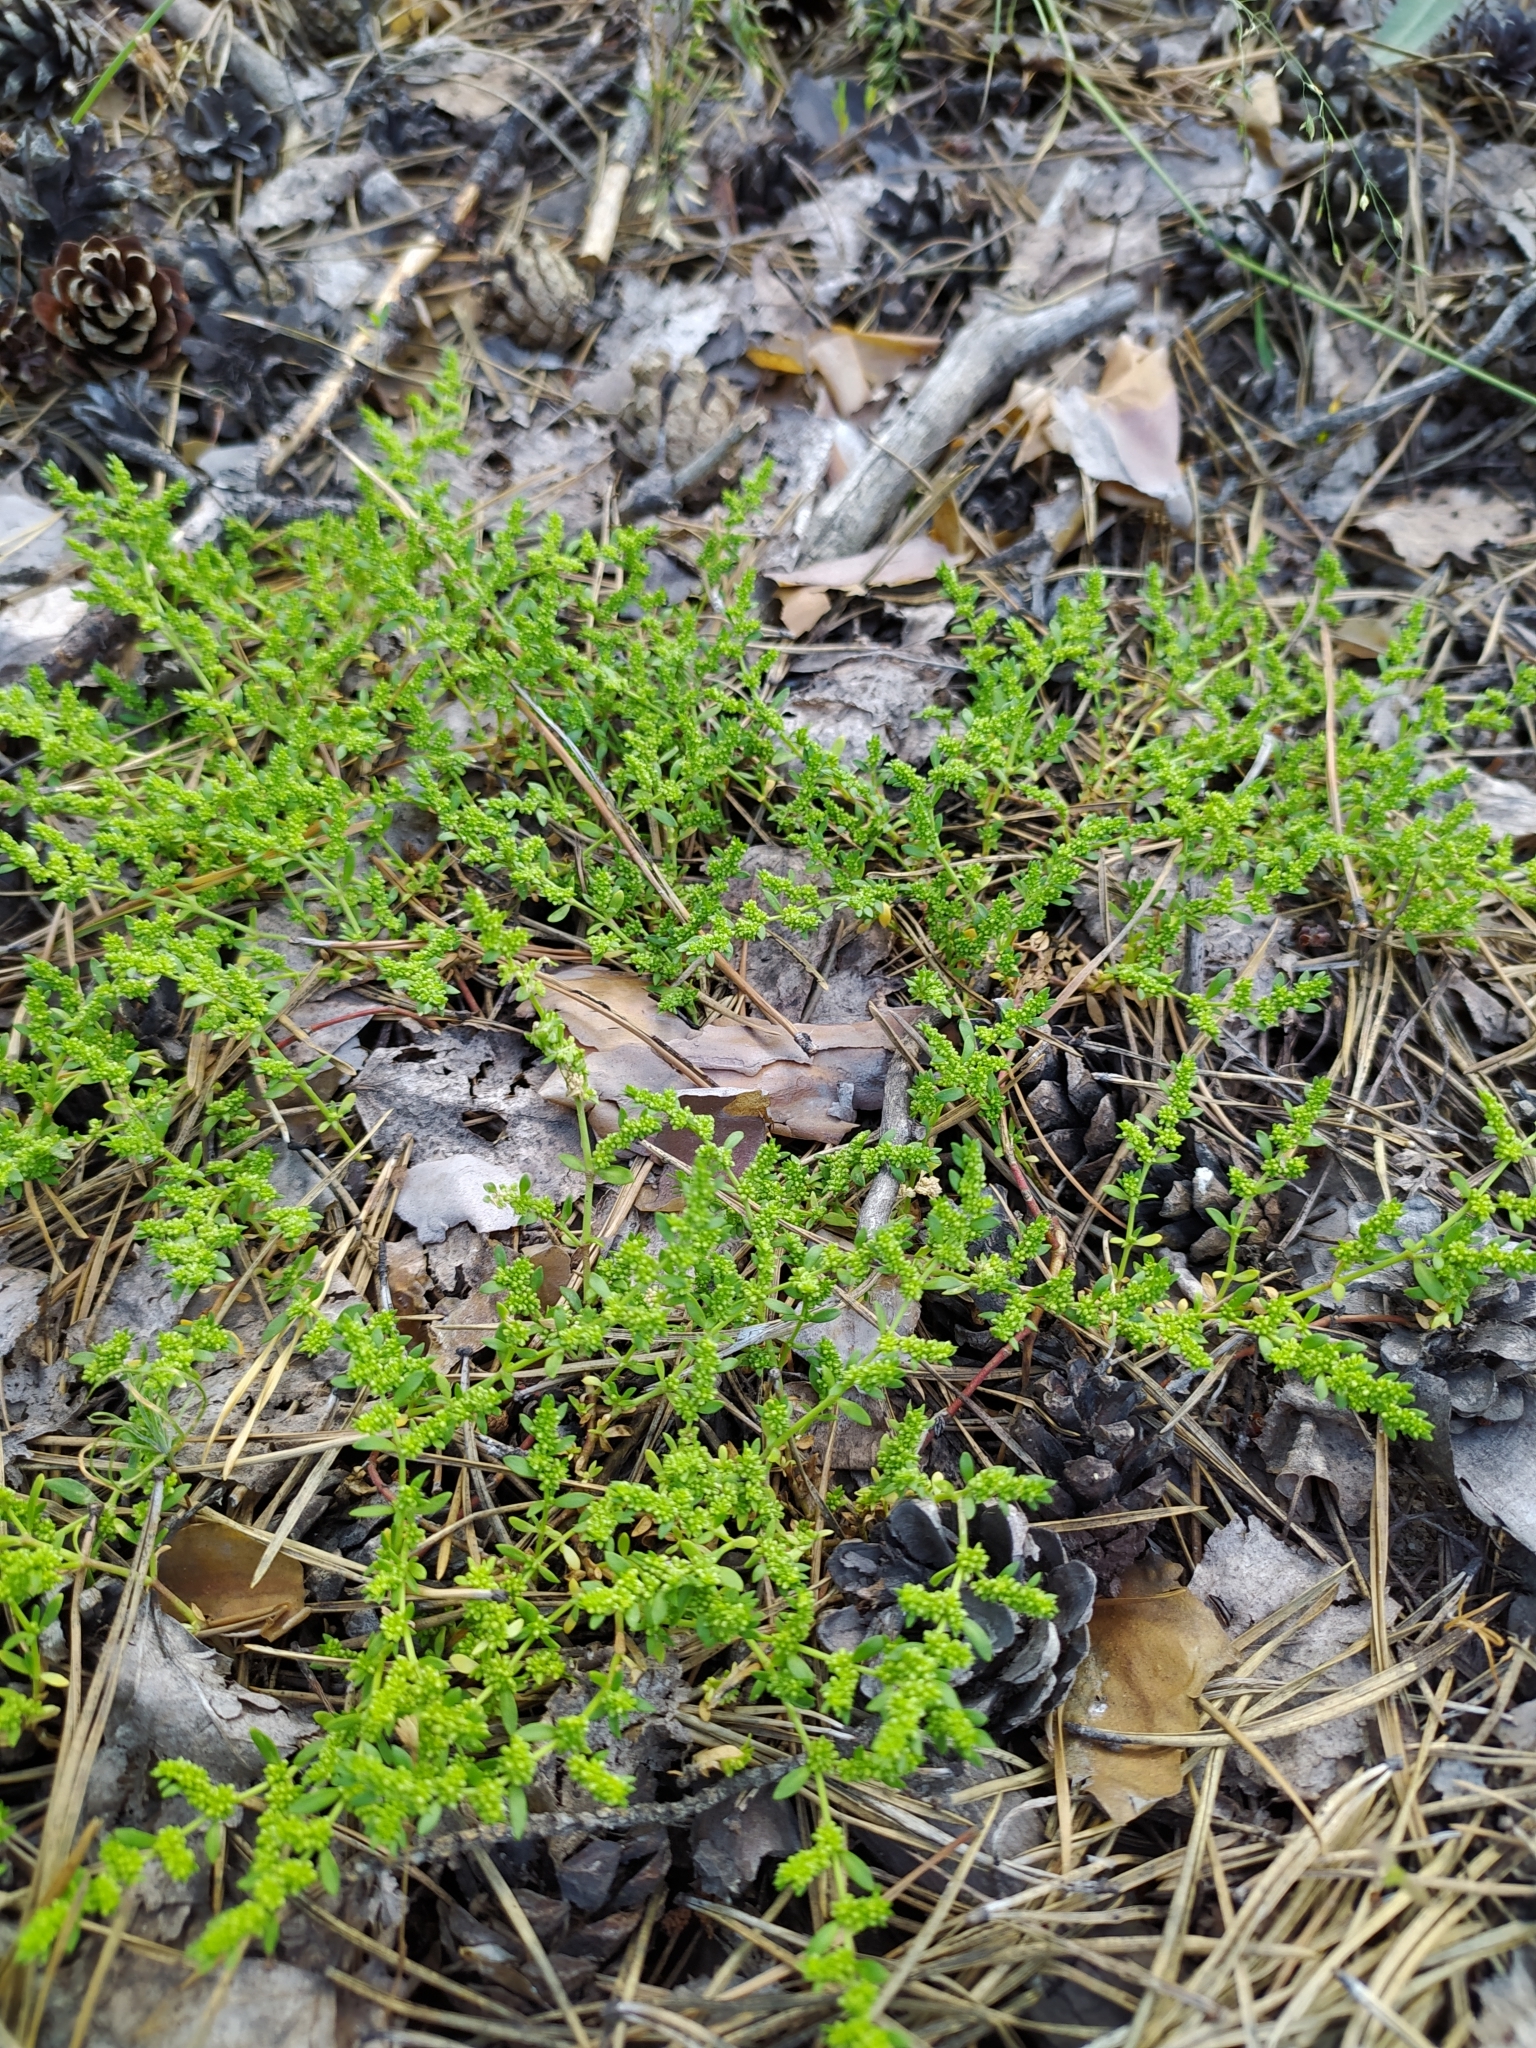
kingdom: Plantae
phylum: Tracheophyta
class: Magnoliopsida
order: Caryophyllales
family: Caryophyllaceae
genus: Herniaria
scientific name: Herniaria glabra
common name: Smooth rupturewort
